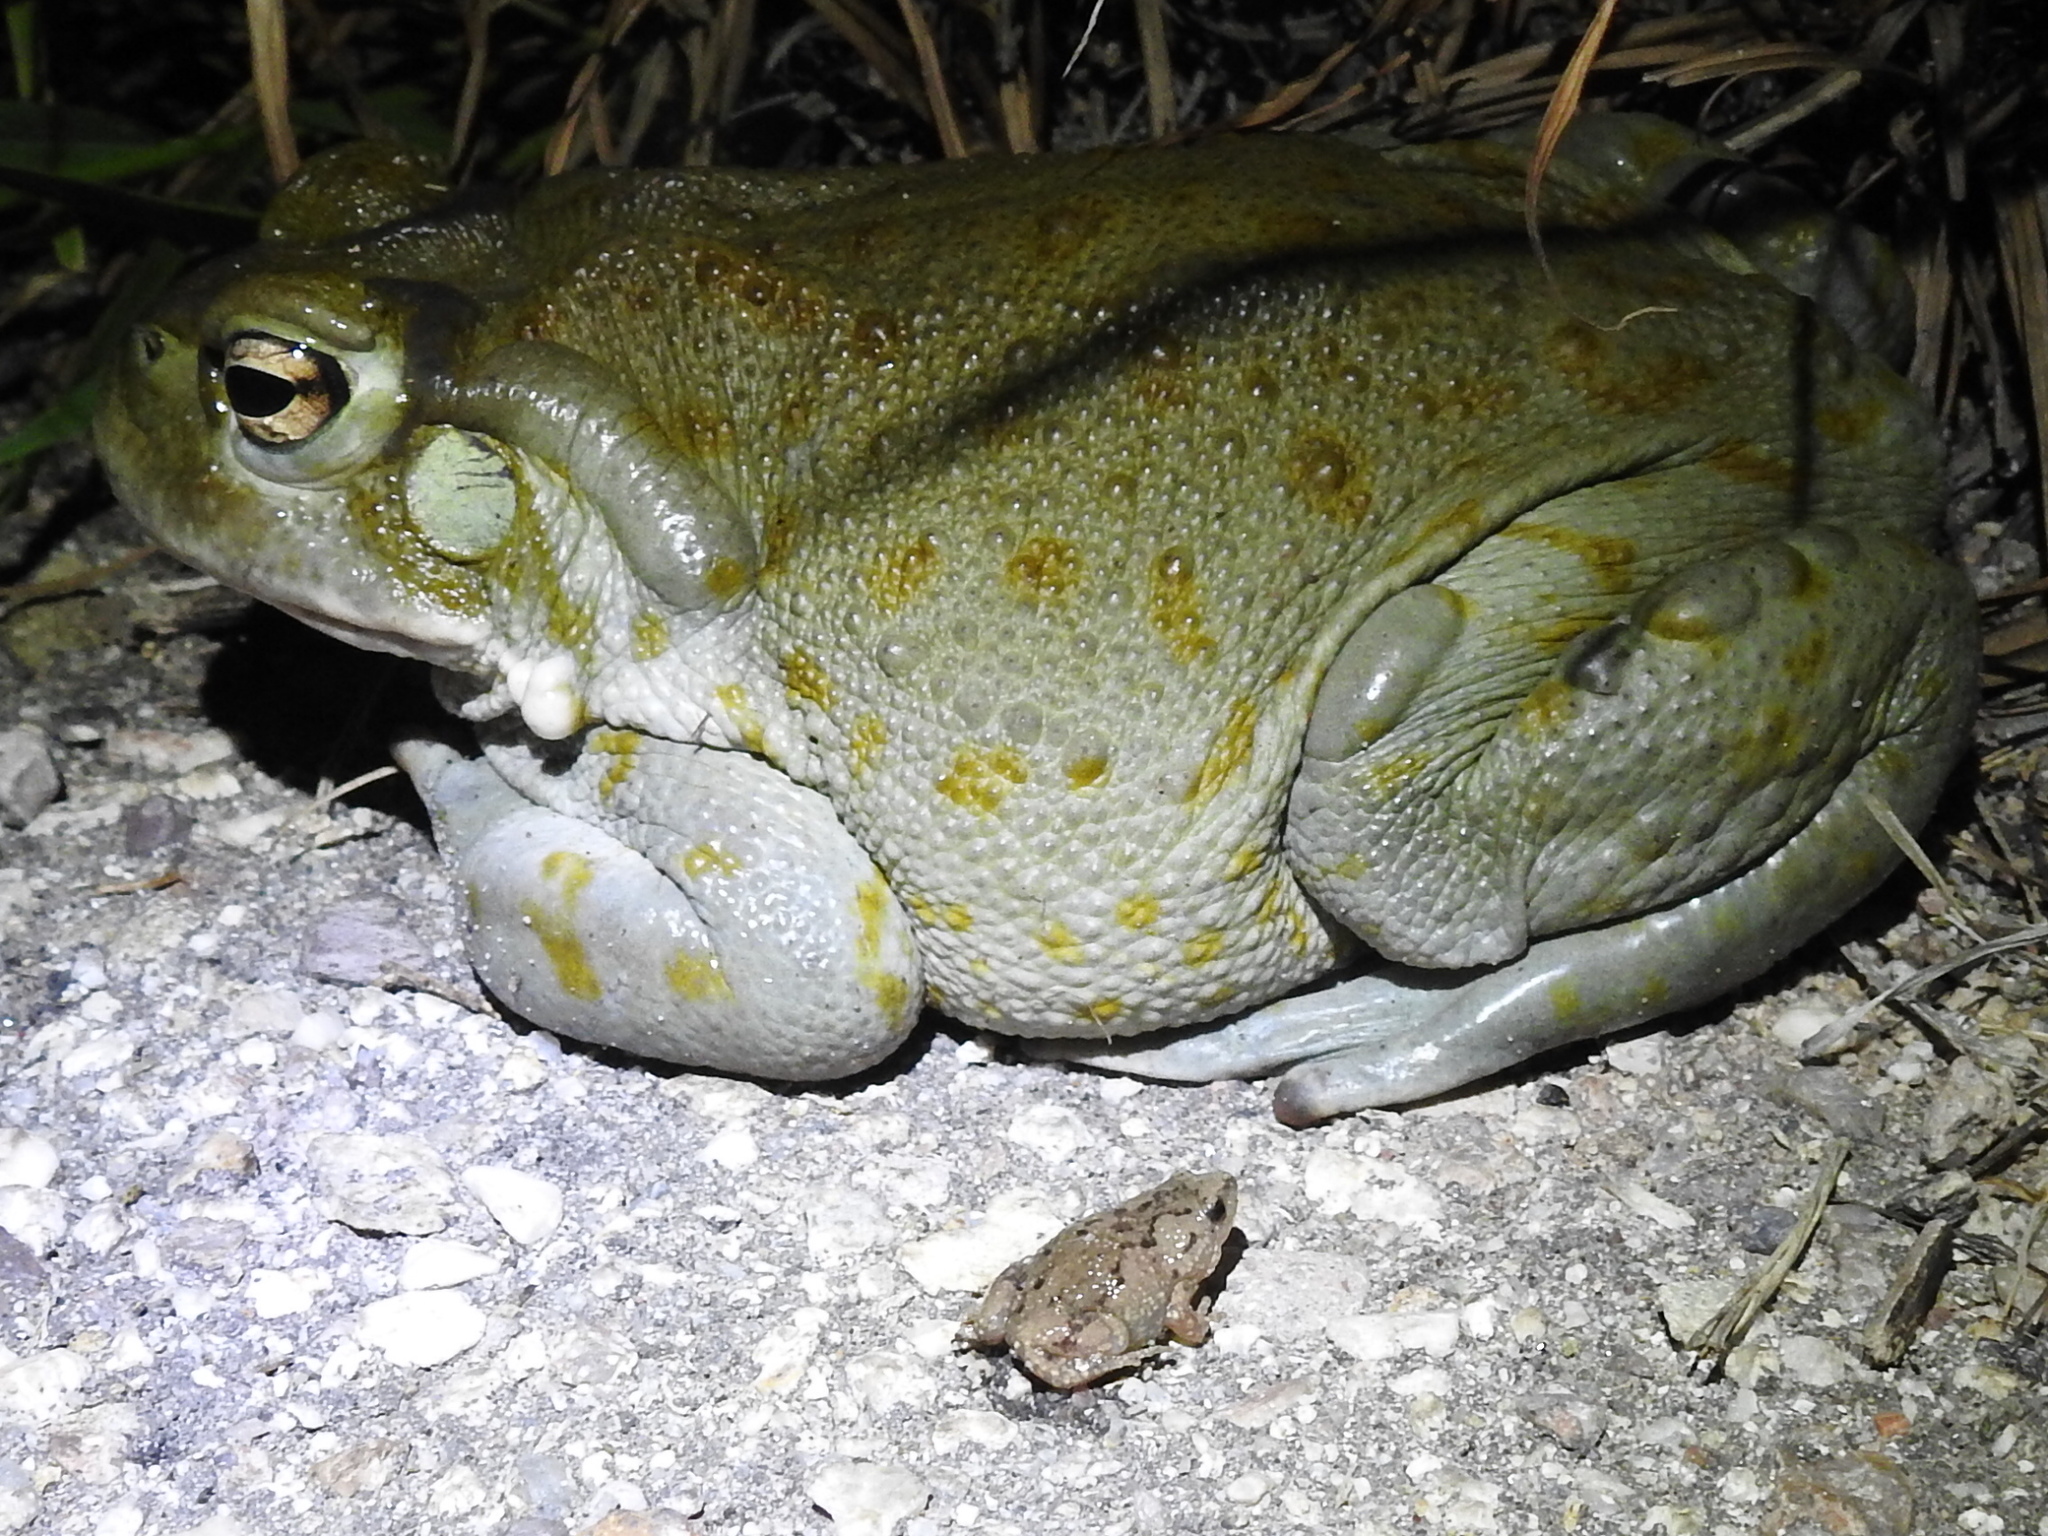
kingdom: Animalia
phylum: Chordata
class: Amphibia
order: Anura
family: Bufonidae
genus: Incilius
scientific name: Incilius alvarius
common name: Sonoran desert toad
